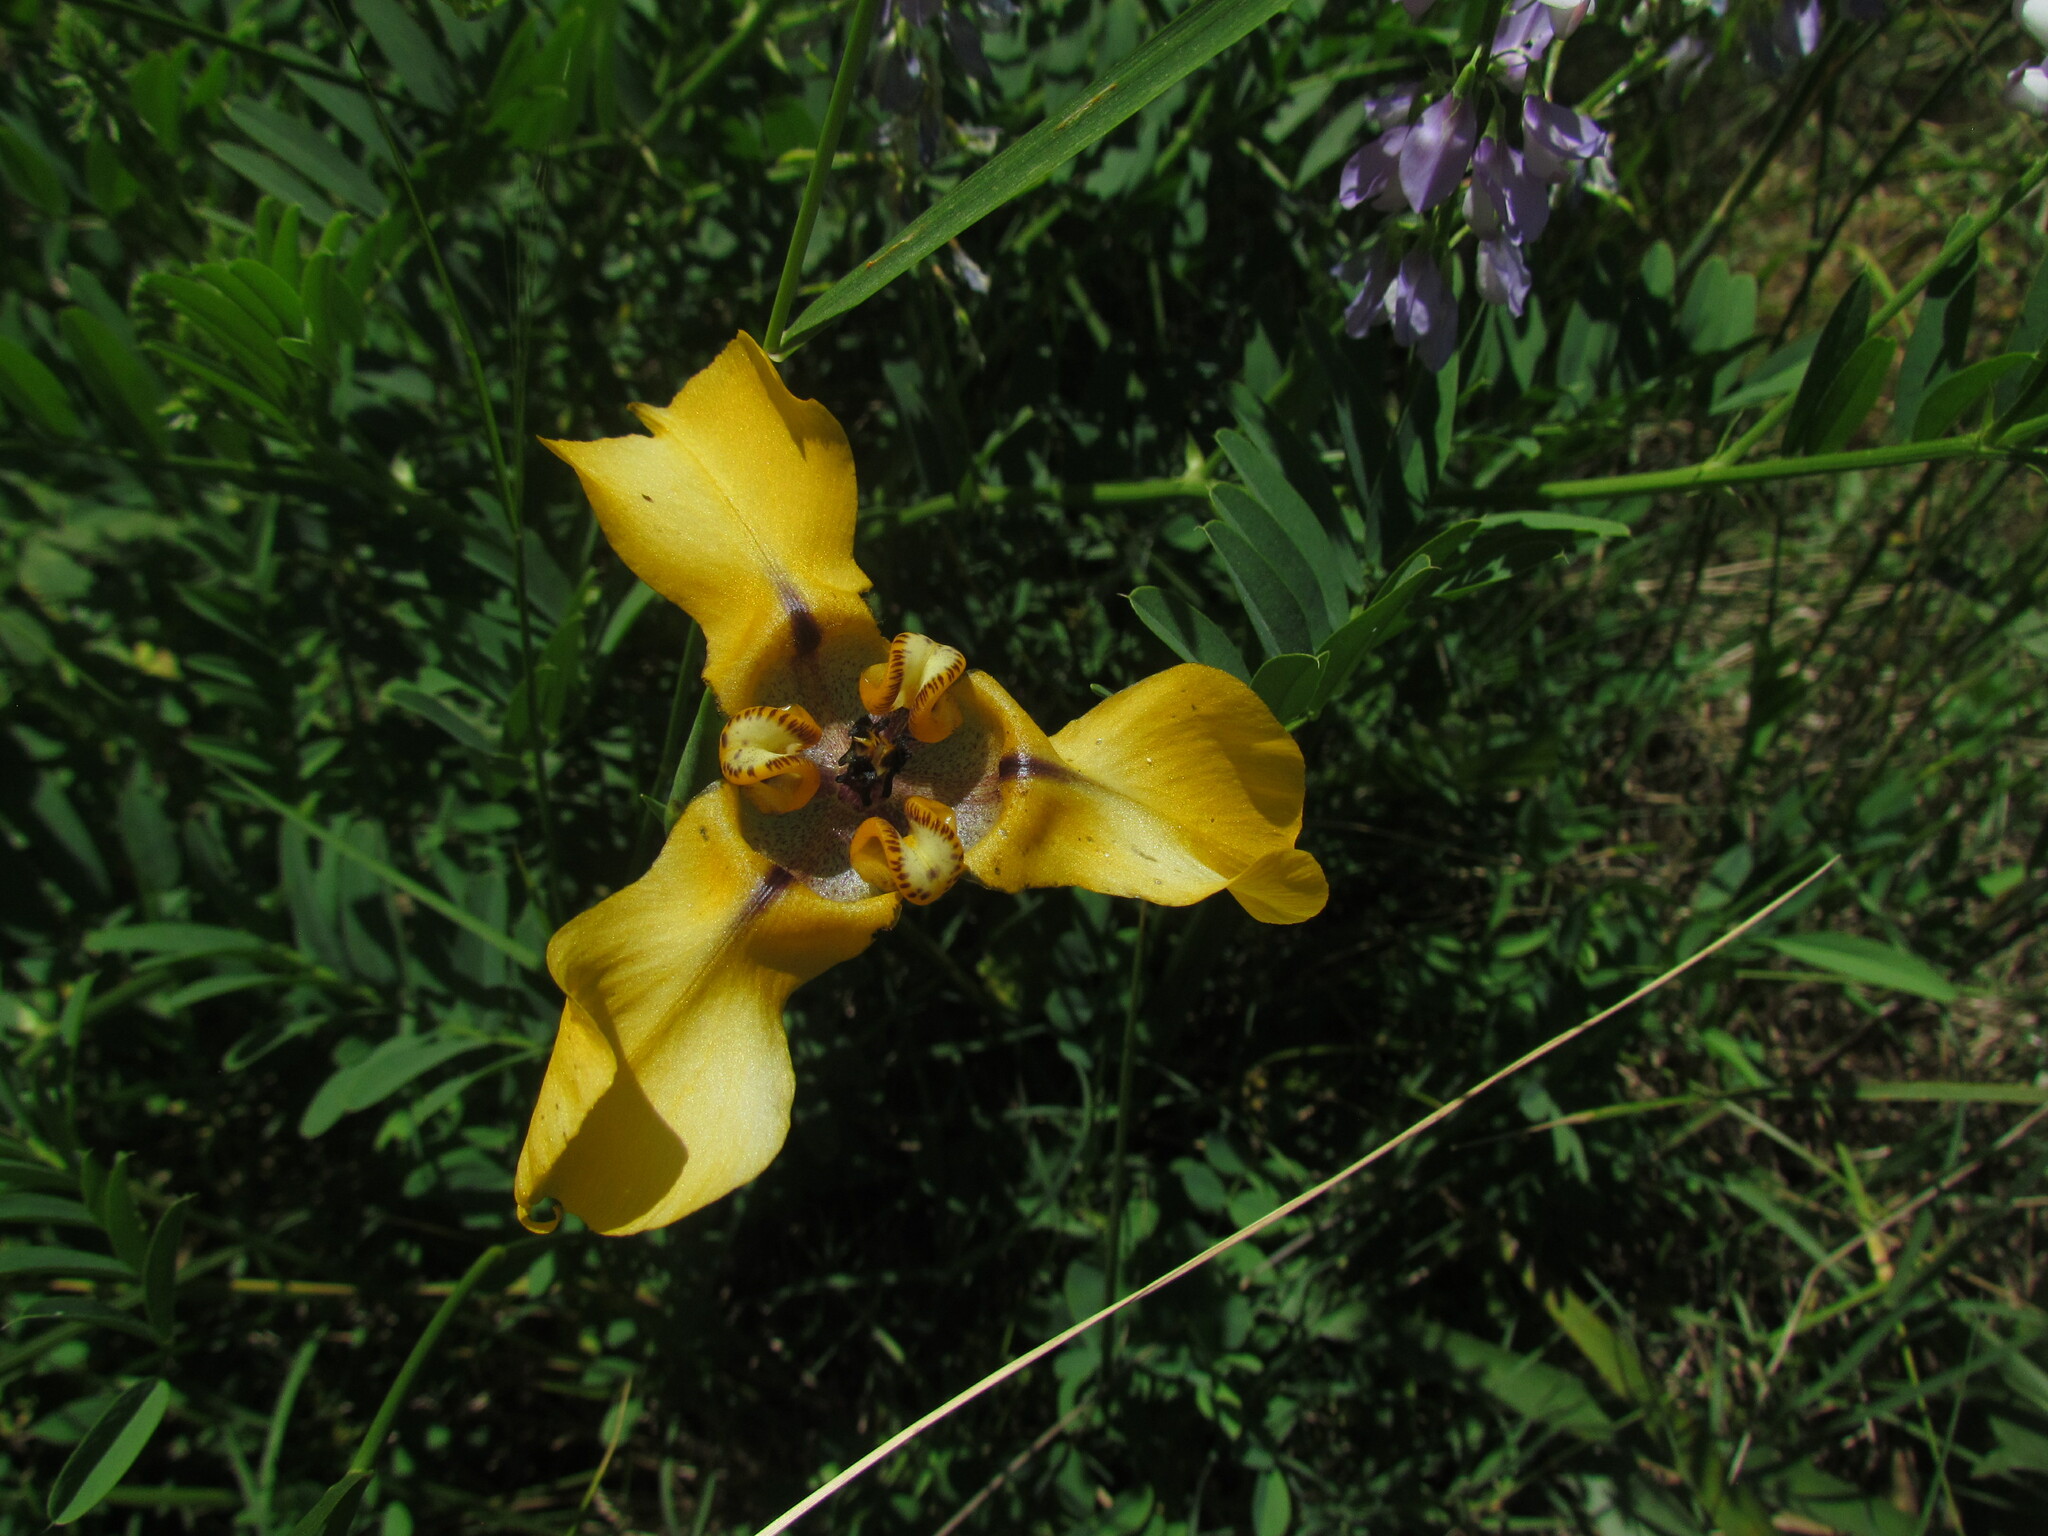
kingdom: Plantae
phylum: Tracheophyta
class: Liliopsida
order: Asparagales
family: Iridaceae
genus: Cypella
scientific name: Cypella herbertii
